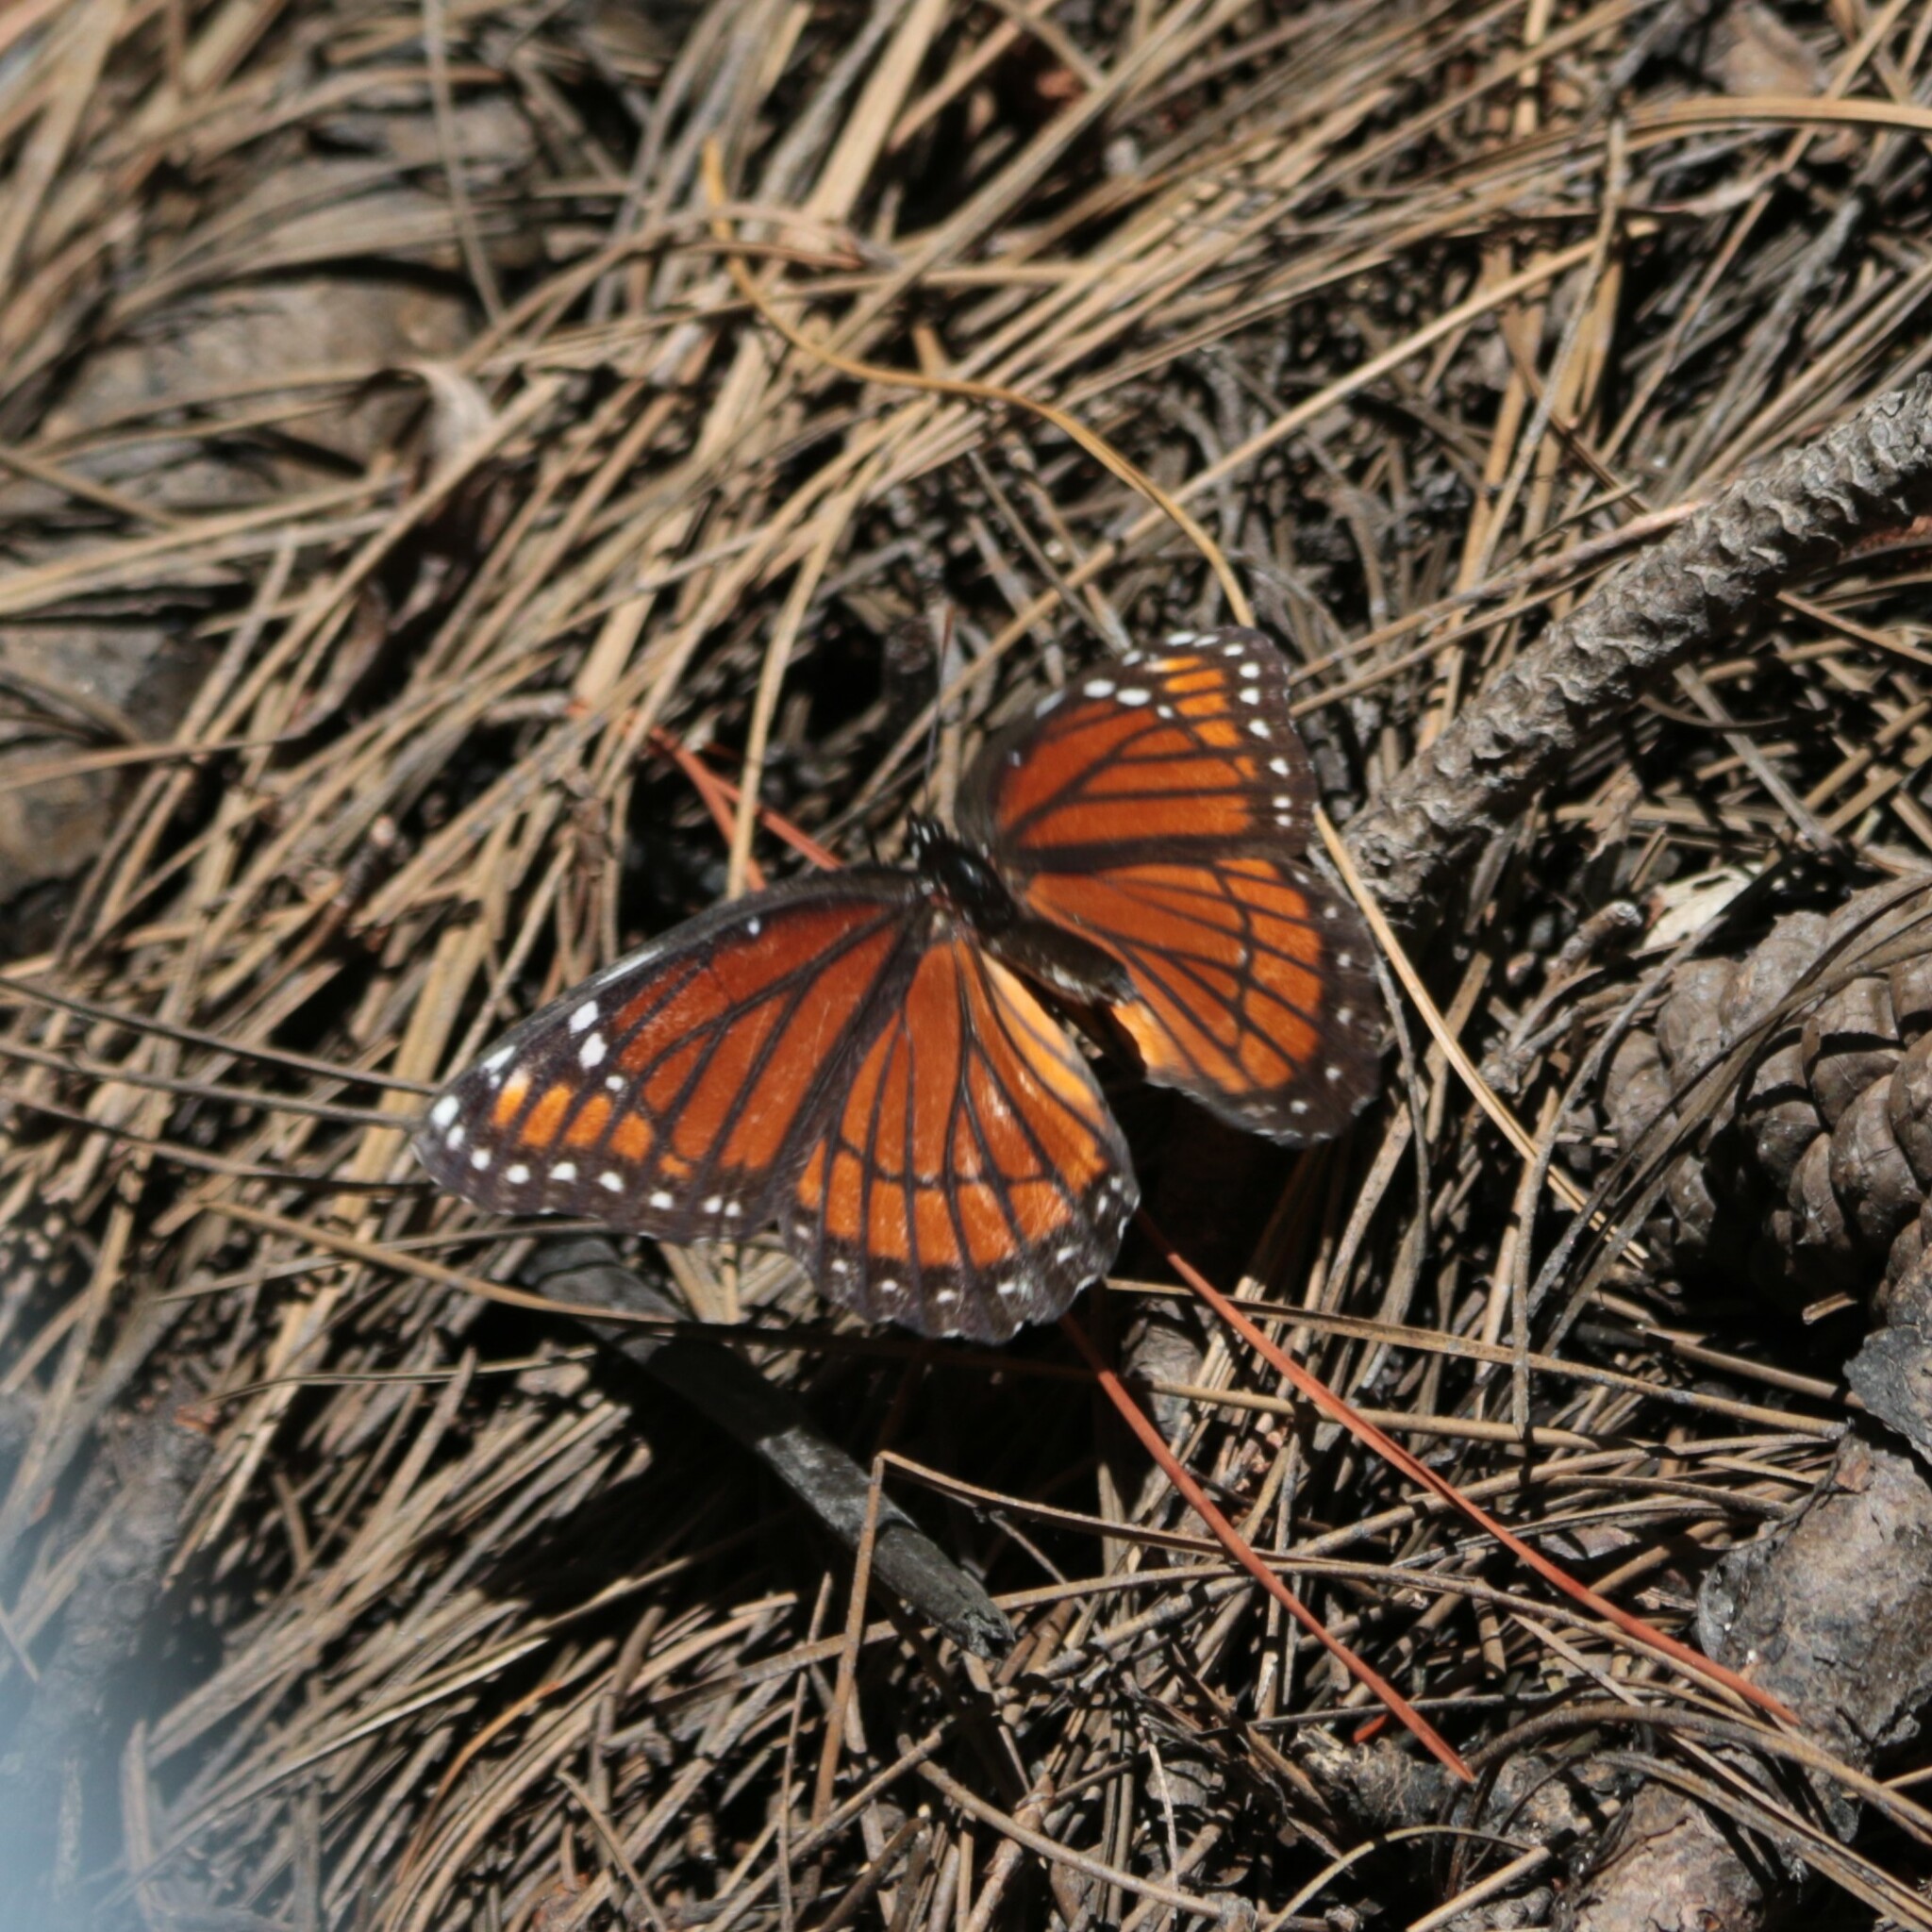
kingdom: Animalia
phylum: Arthropoda
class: Insecta
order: Lepidoptera
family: Nymphalidae
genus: Limenitis
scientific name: Limenitis archippus
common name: Viceroy
